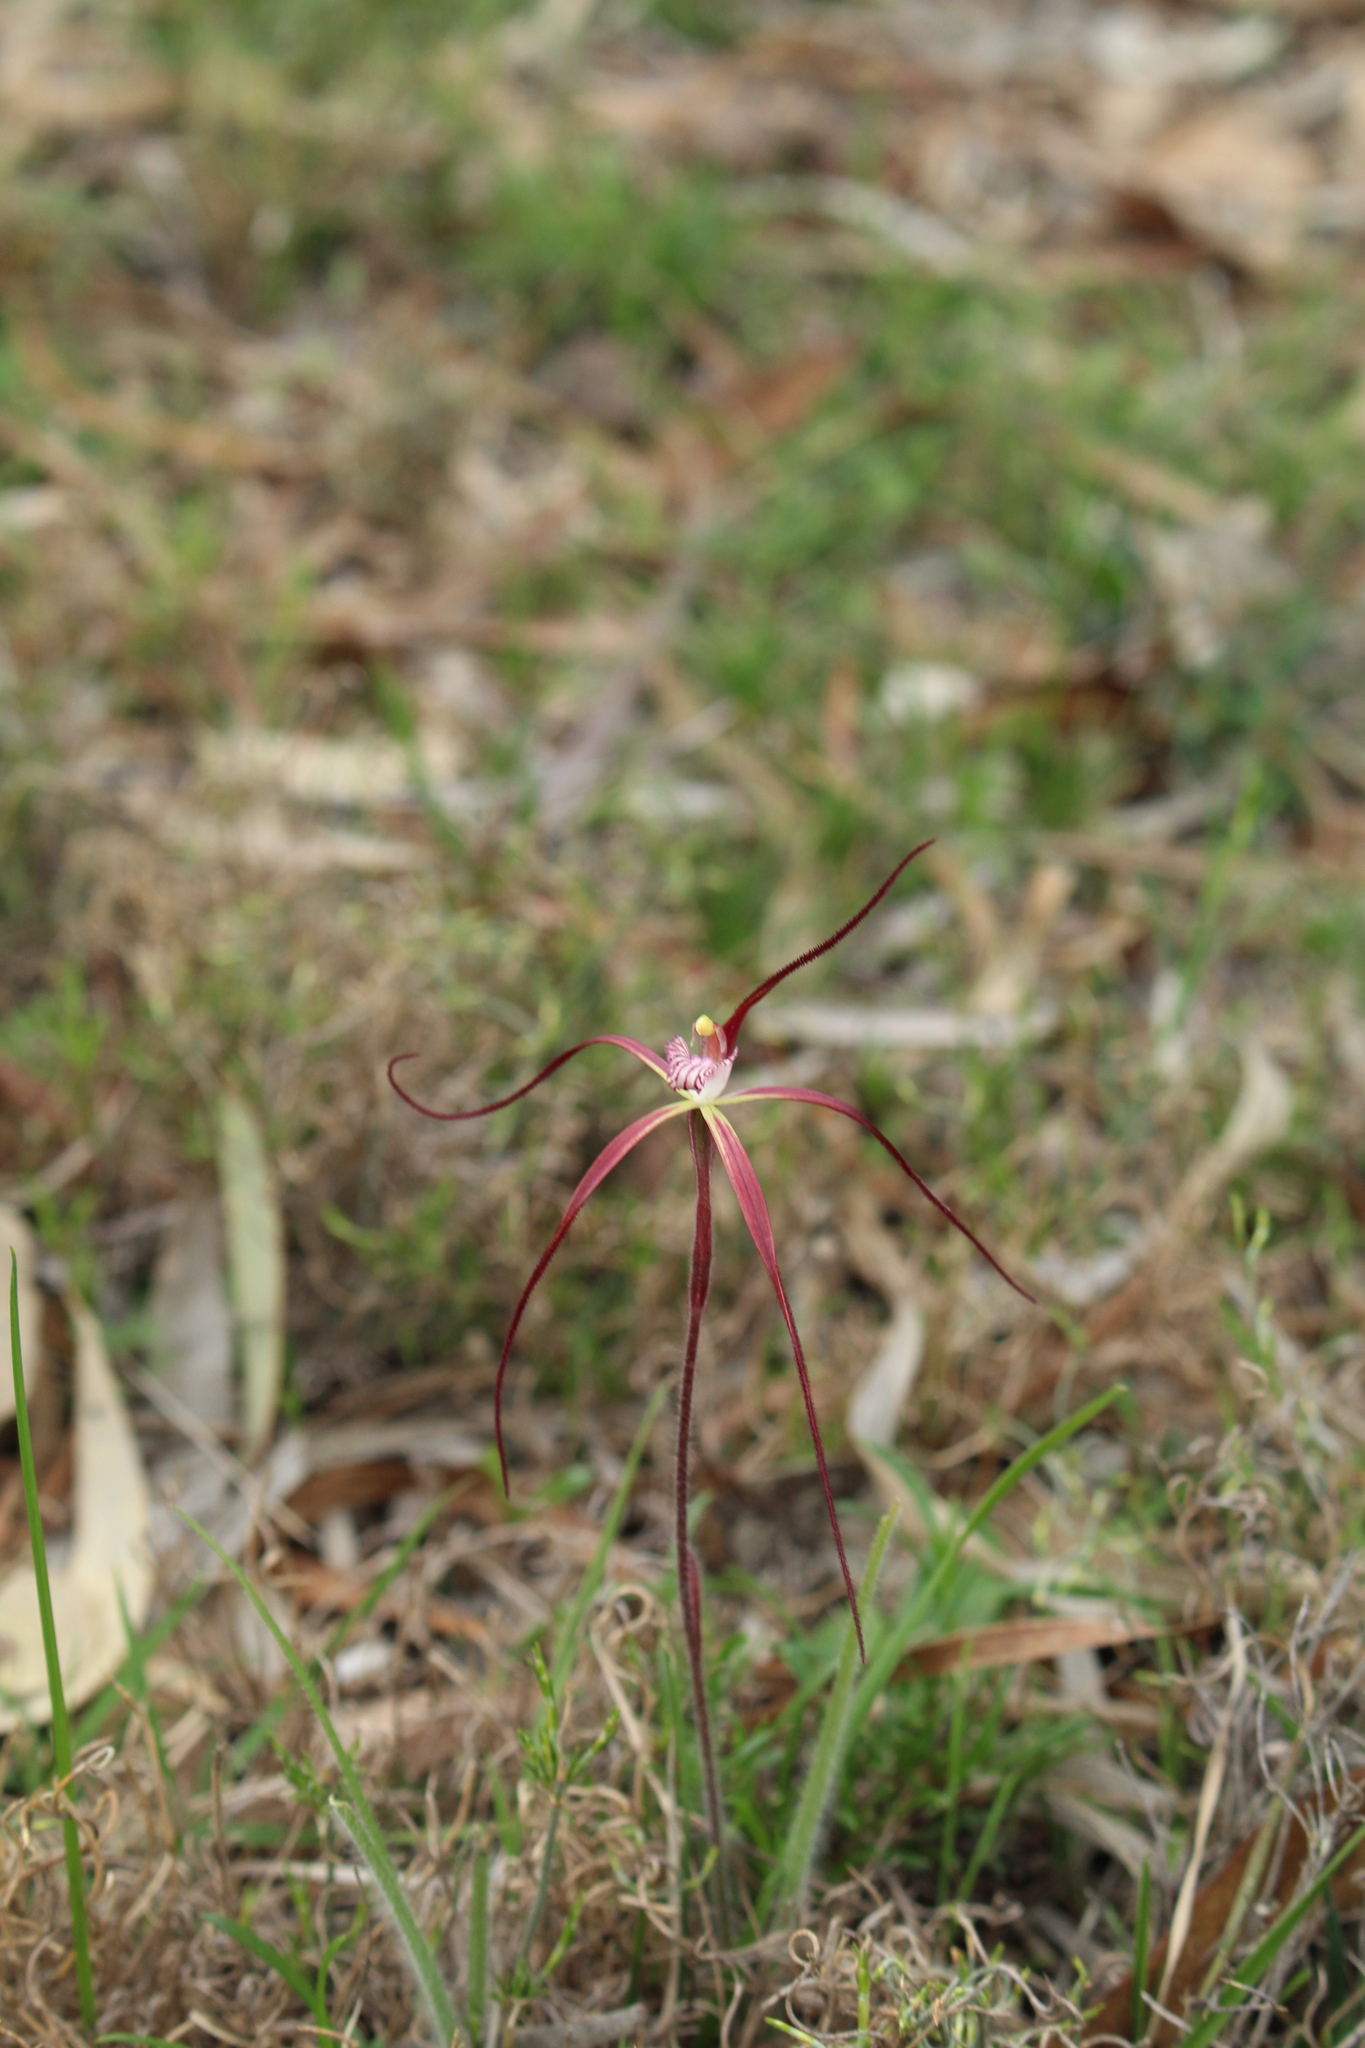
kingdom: Plantae
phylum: Tracheophyta
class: Liliopsida
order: Asparagales
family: Orchidaceae
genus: Caladenia
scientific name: Caladenia polychroma
